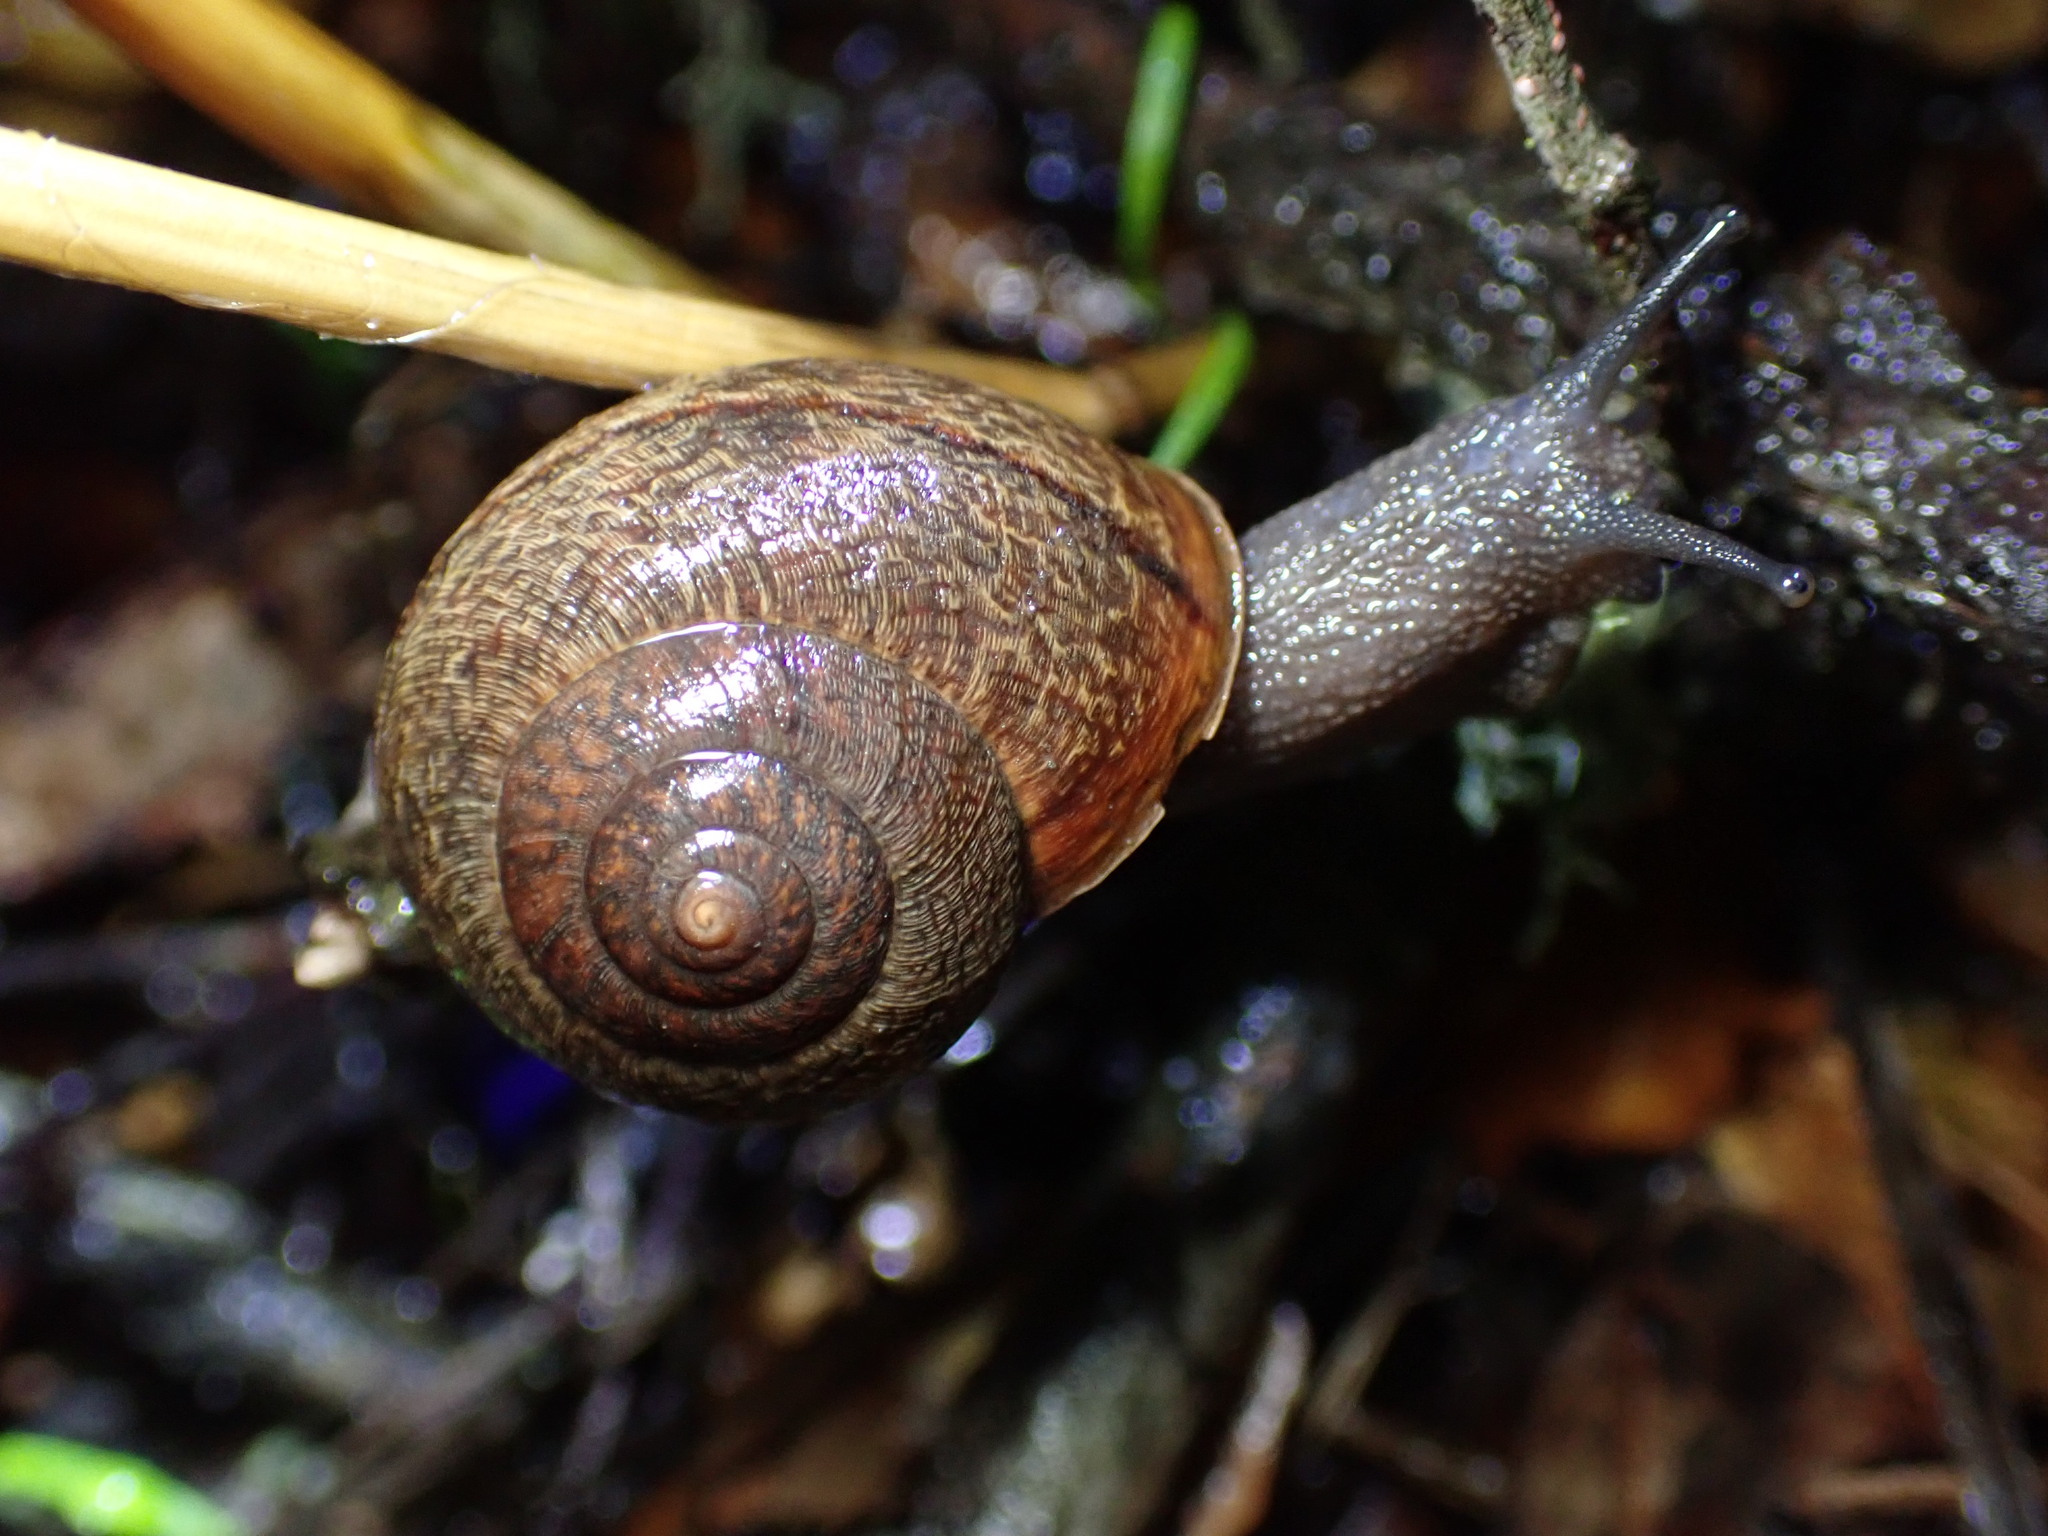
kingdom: Animalia
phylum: Mollusca
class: Gastropoda
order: Stylommatophora
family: Xanthonychidae
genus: Helminthoglypta
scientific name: Helminthoglypta nickliniana
